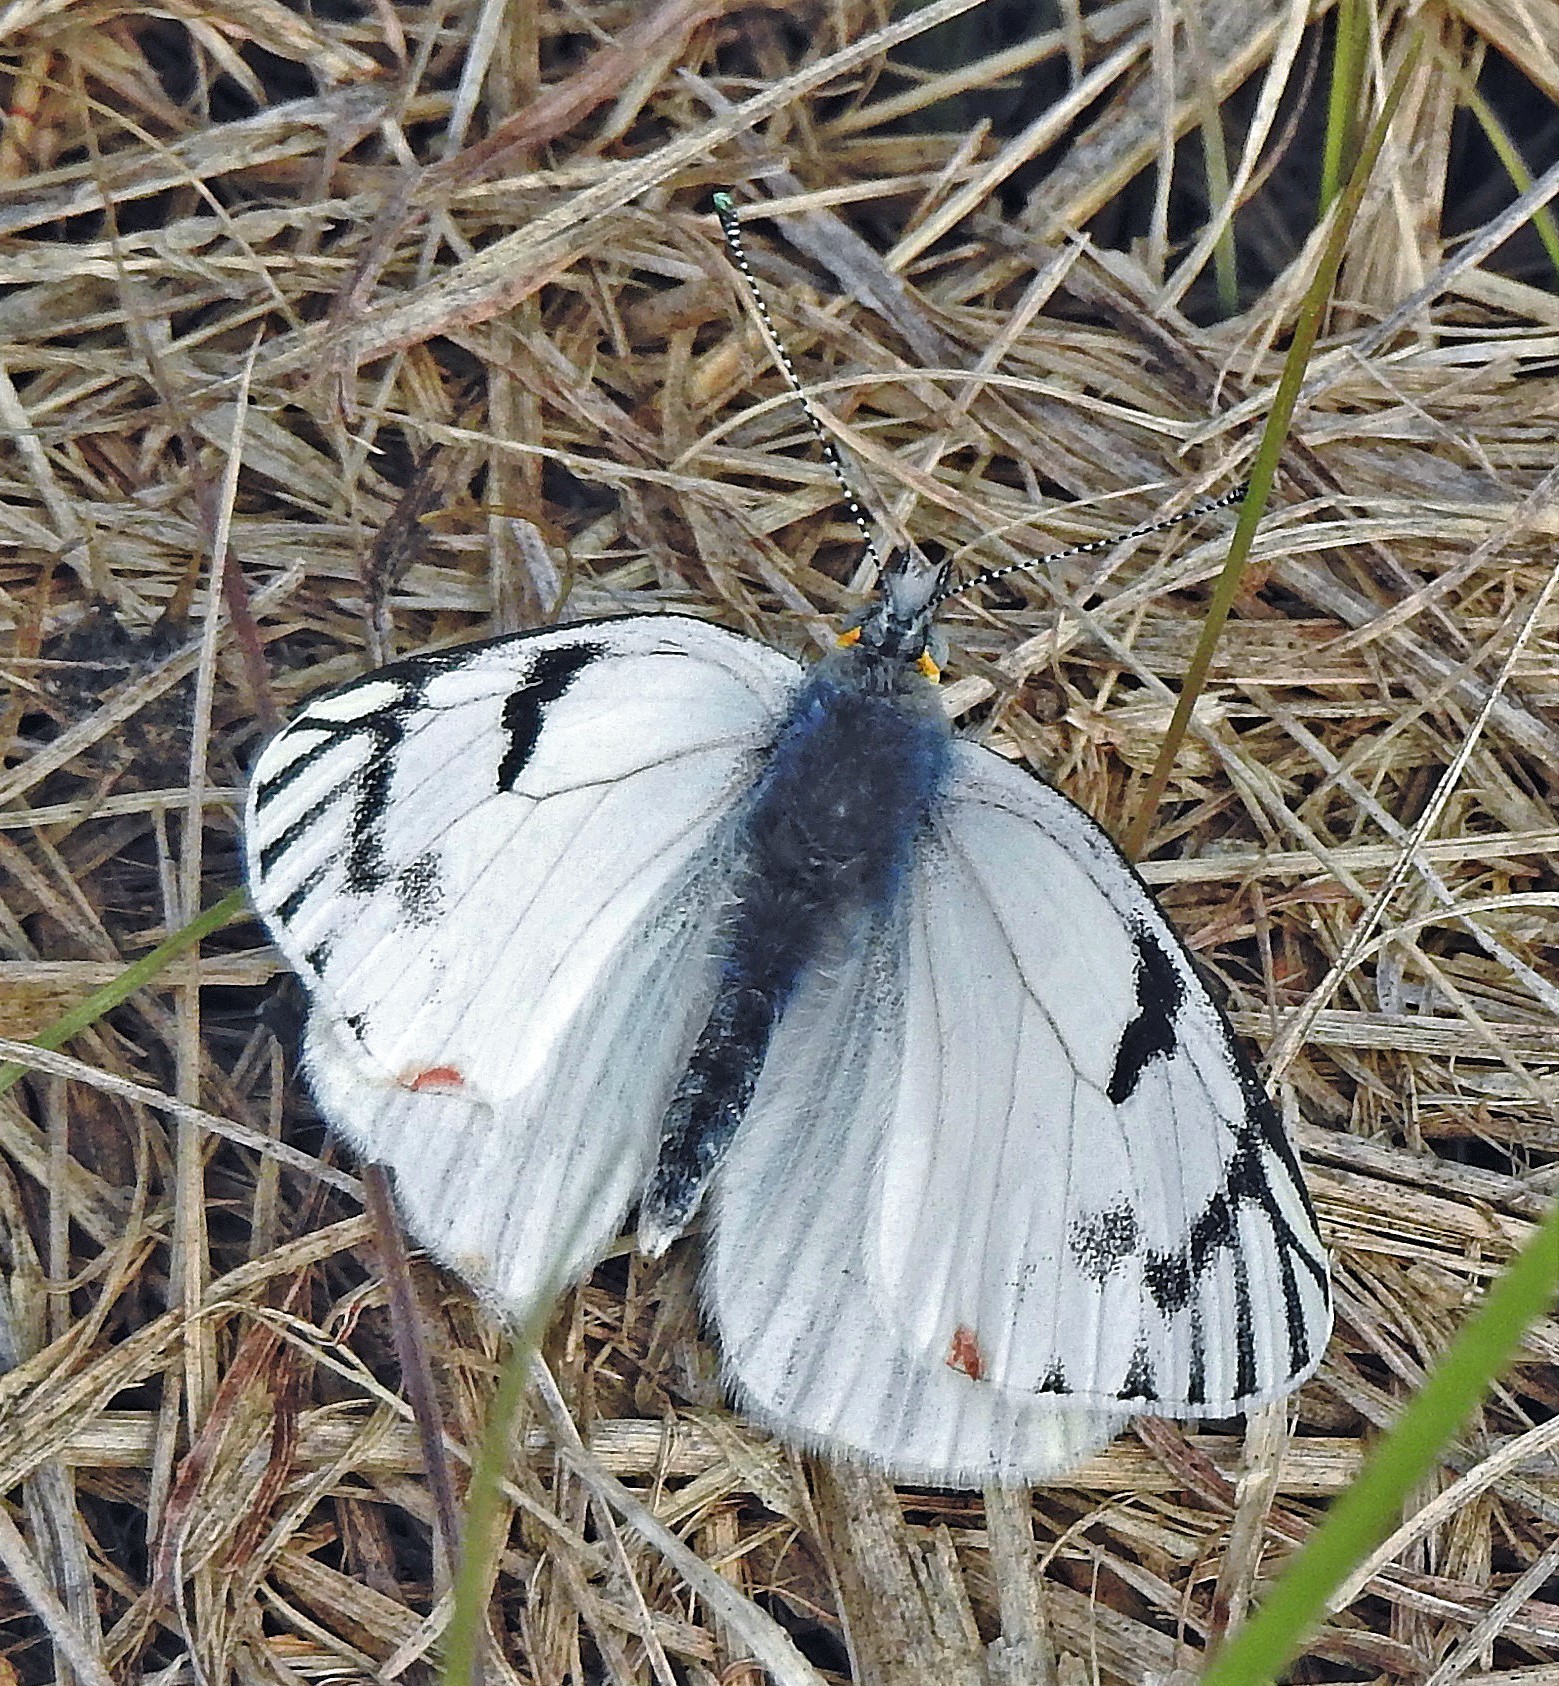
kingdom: Animalia
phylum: Arthropoda
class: Insecta
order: Lepidoptera
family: Pieridae
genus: Tatochila
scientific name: Tatochila mercedis
